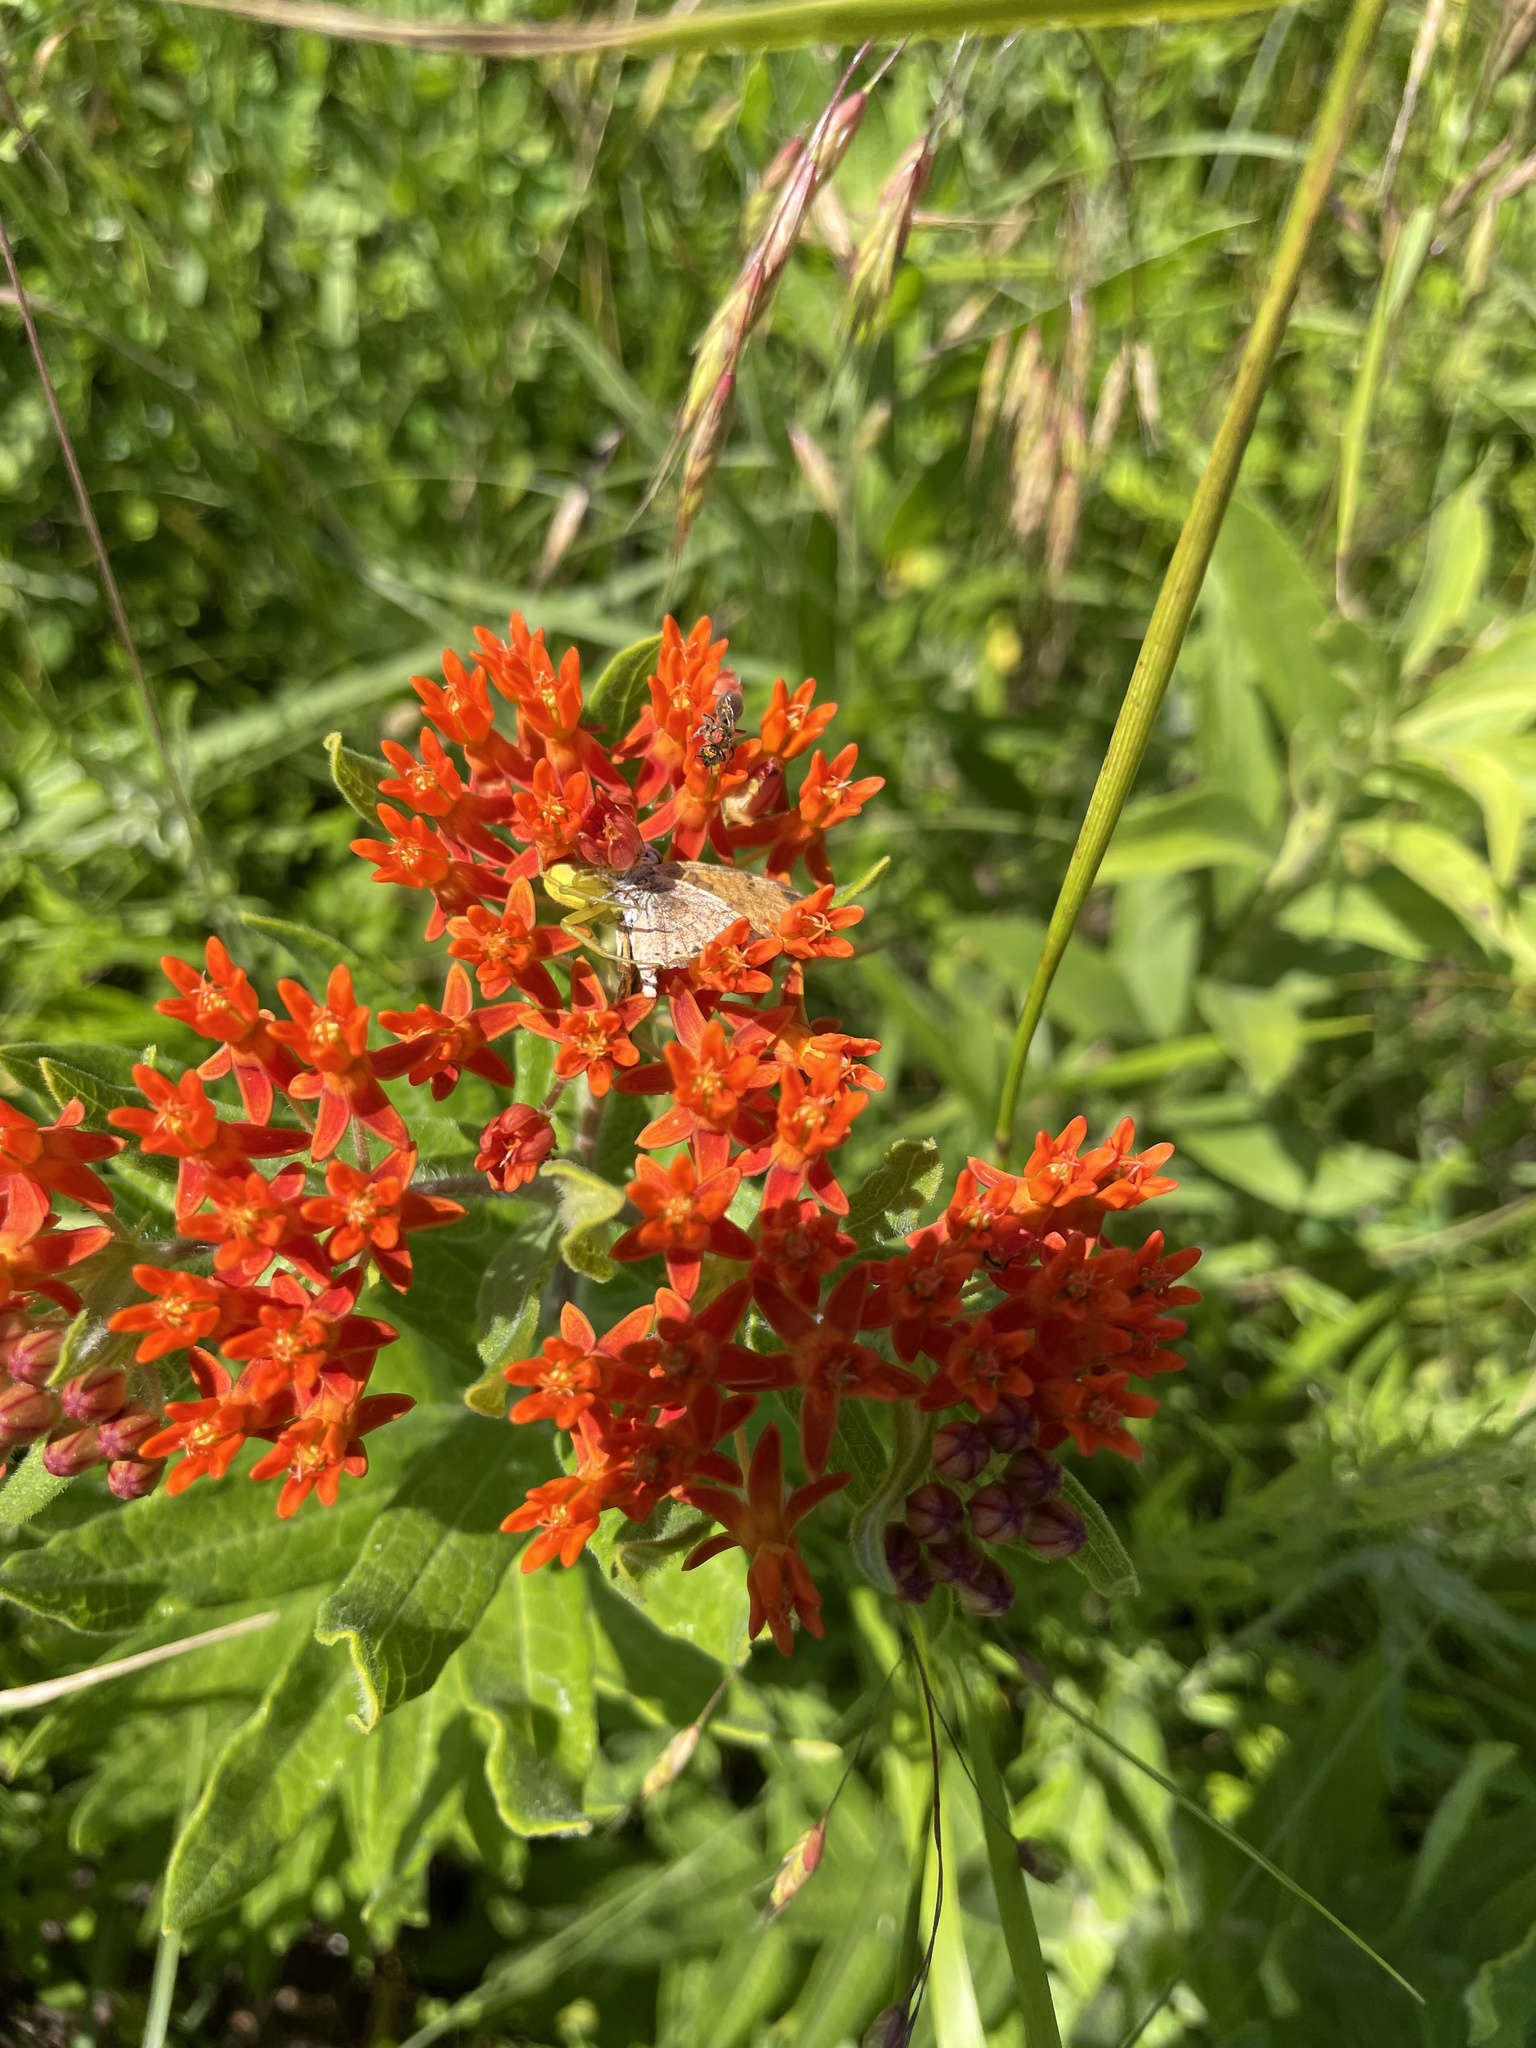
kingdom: Plantae
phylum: Tracheophyta
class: Magnoliopsida
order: Gentianales
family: Apocynaceae
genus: Asclepias
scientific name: Asclepias tuberosa
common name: Butterfly milkweed
